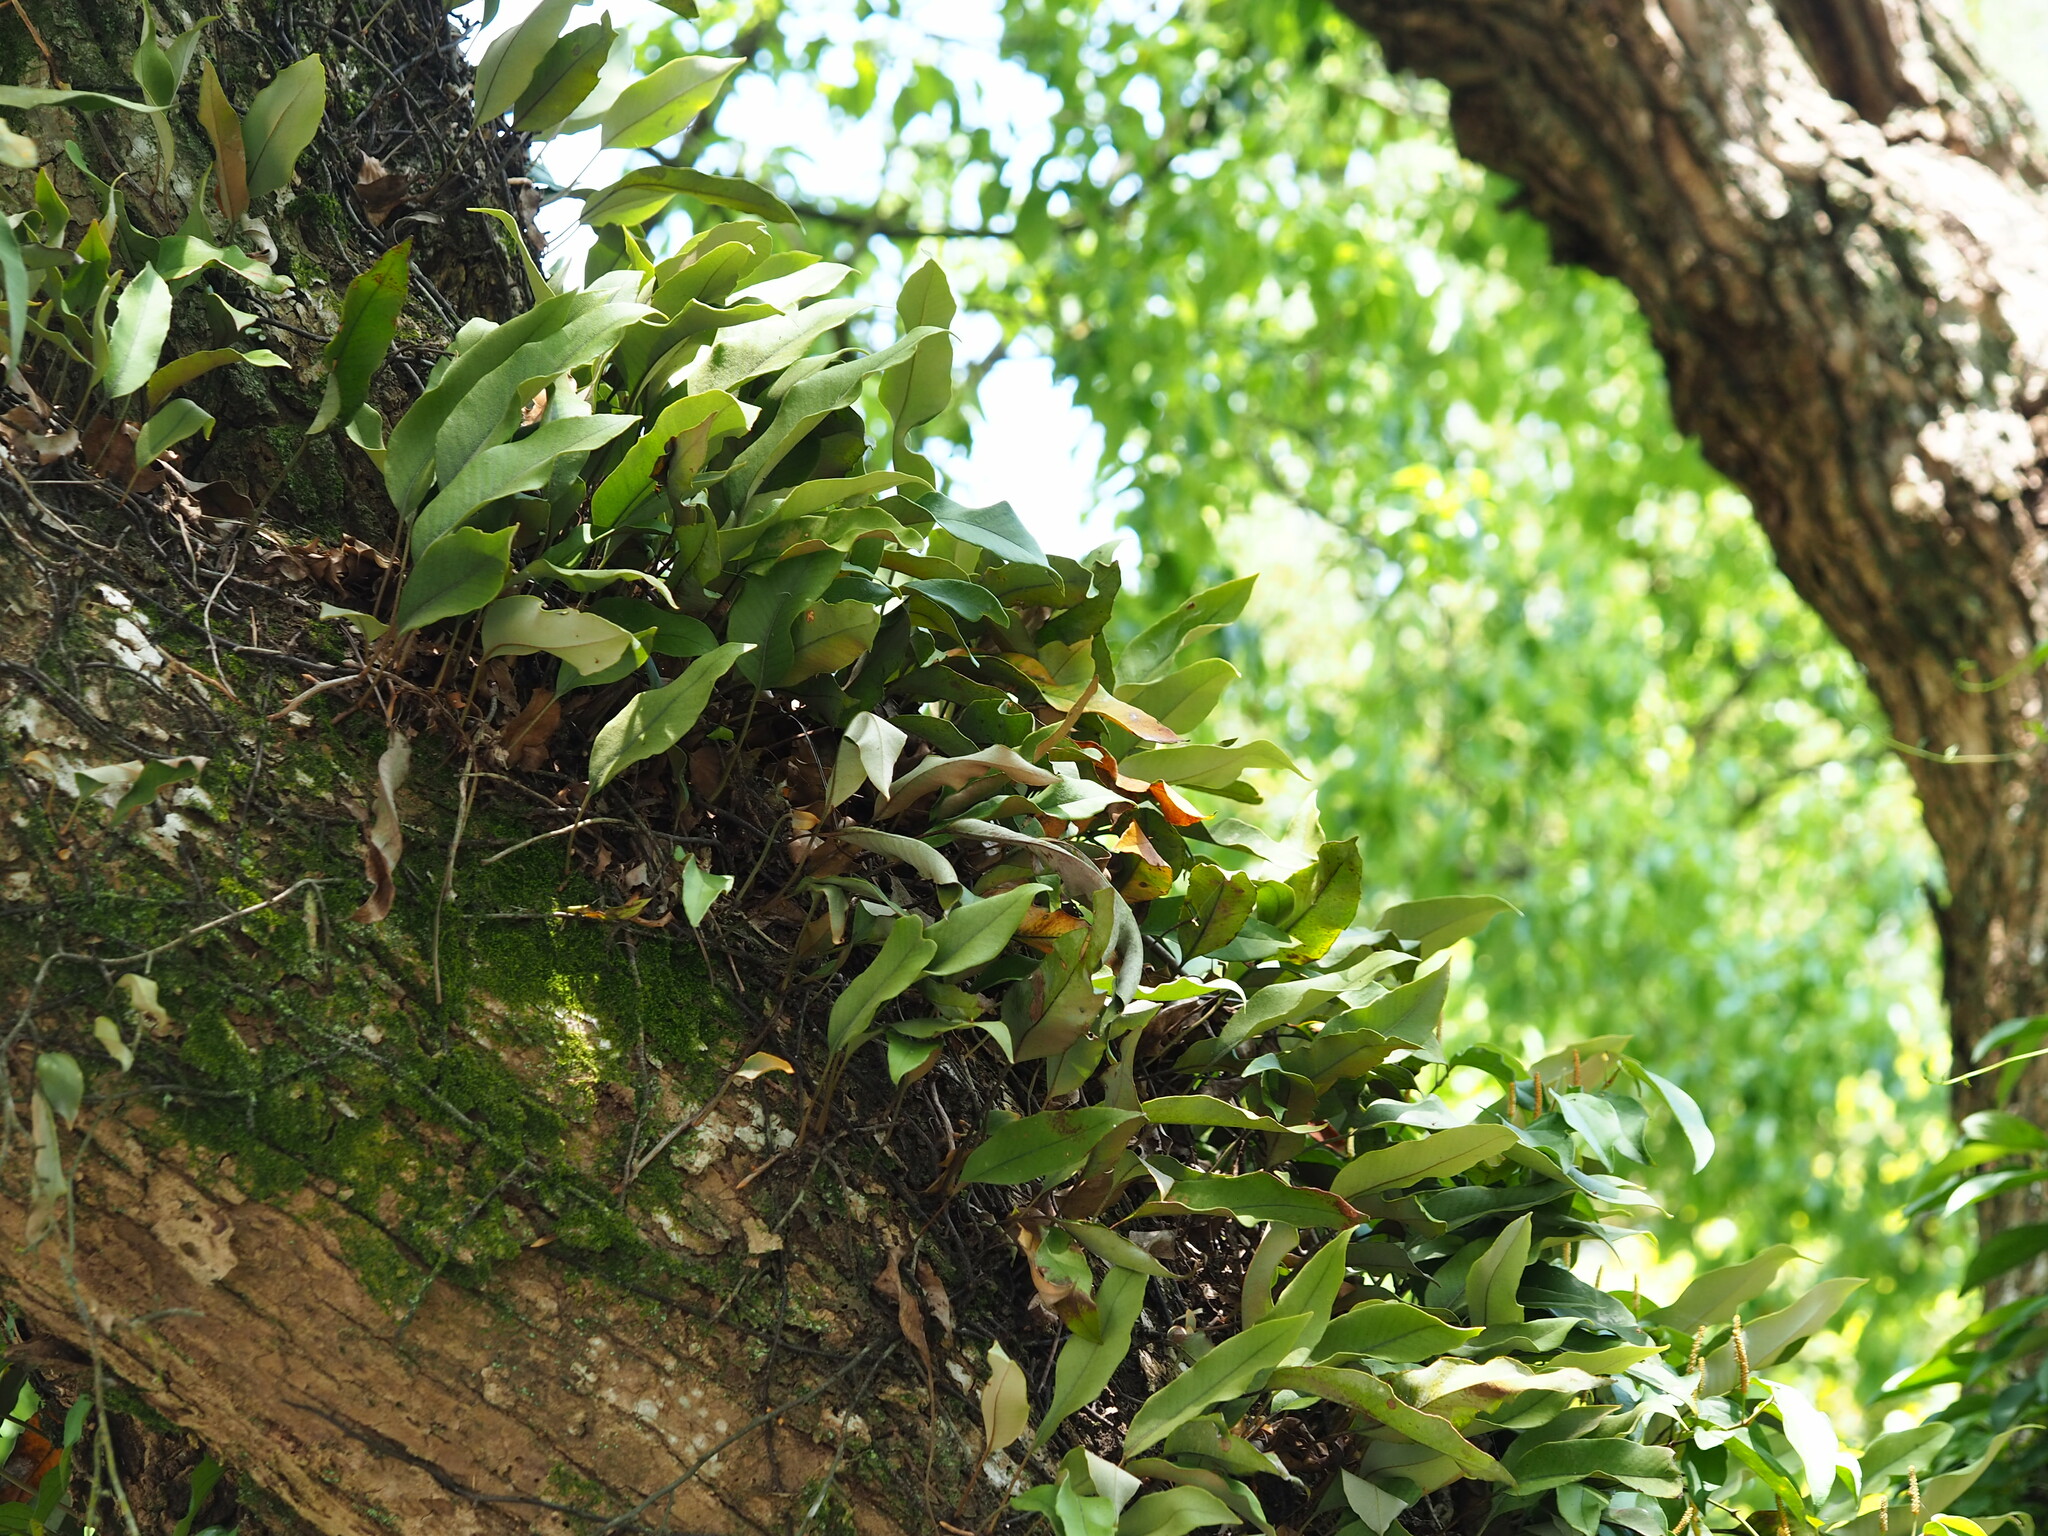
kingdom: Plantae
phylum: Tracheophyta
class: Polypodiopsida
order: Polypodiales
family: Polypodiaceae
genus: Pyrrosia
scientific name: Pyrrosia lingua
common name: Felt fern
